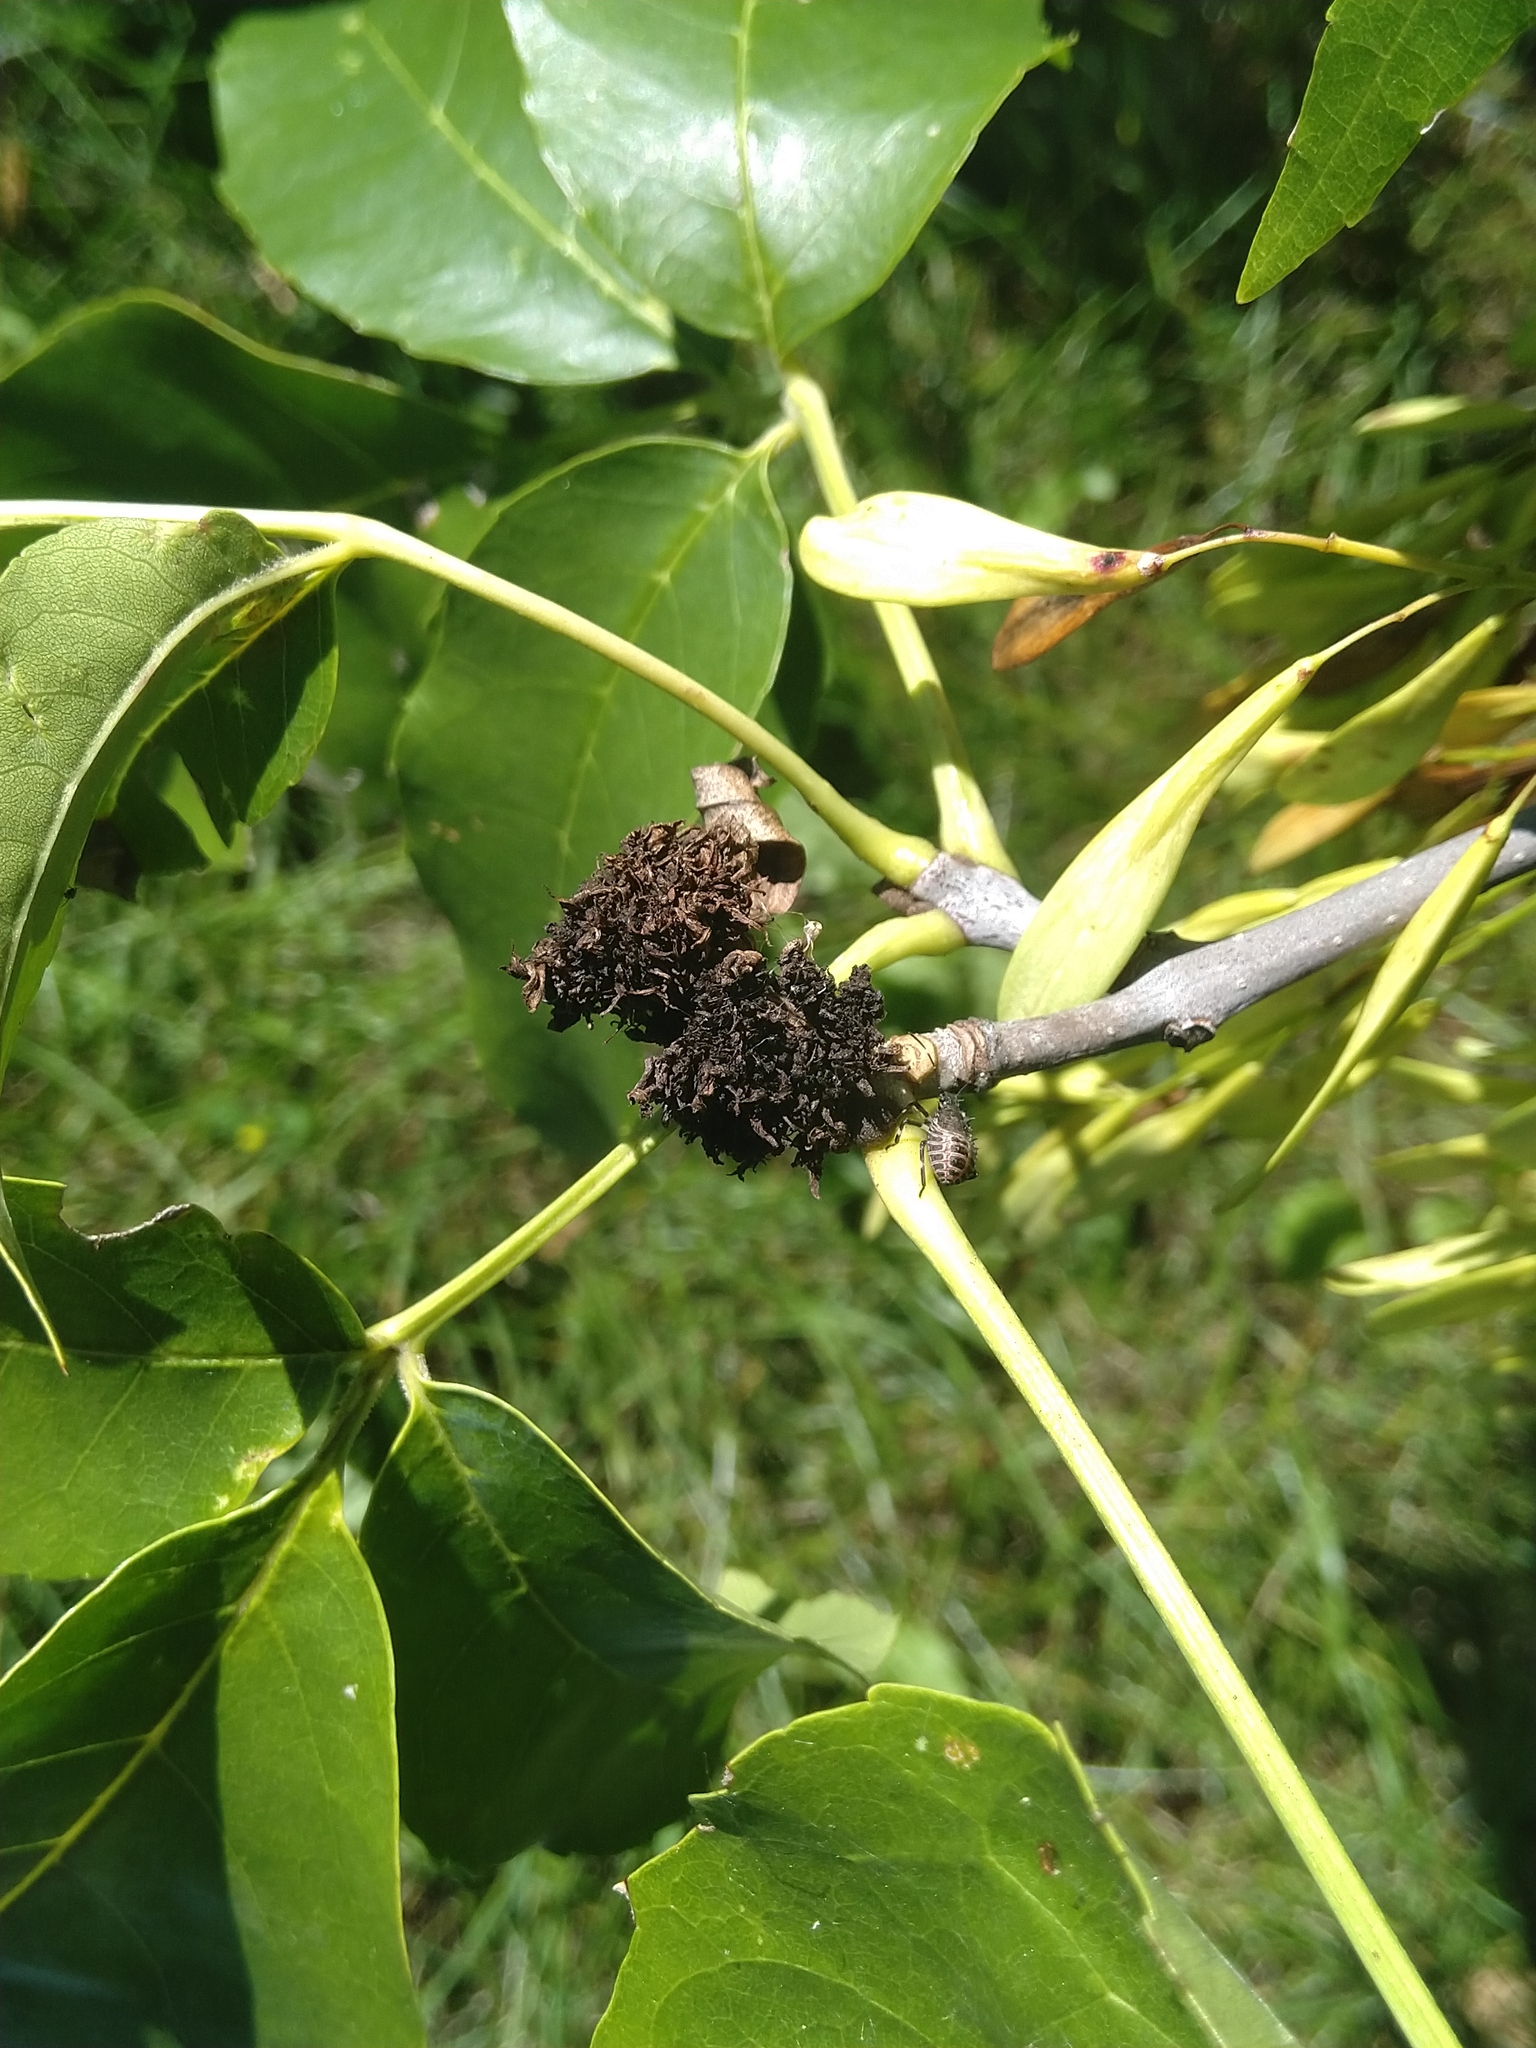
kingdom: Animalia
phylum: Arthropoda
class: Arachnida
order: Trombidiformes
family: Eriophyidae
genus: Aceria
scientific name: Aceria fraxiniflora
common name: Ash flower gall mite
